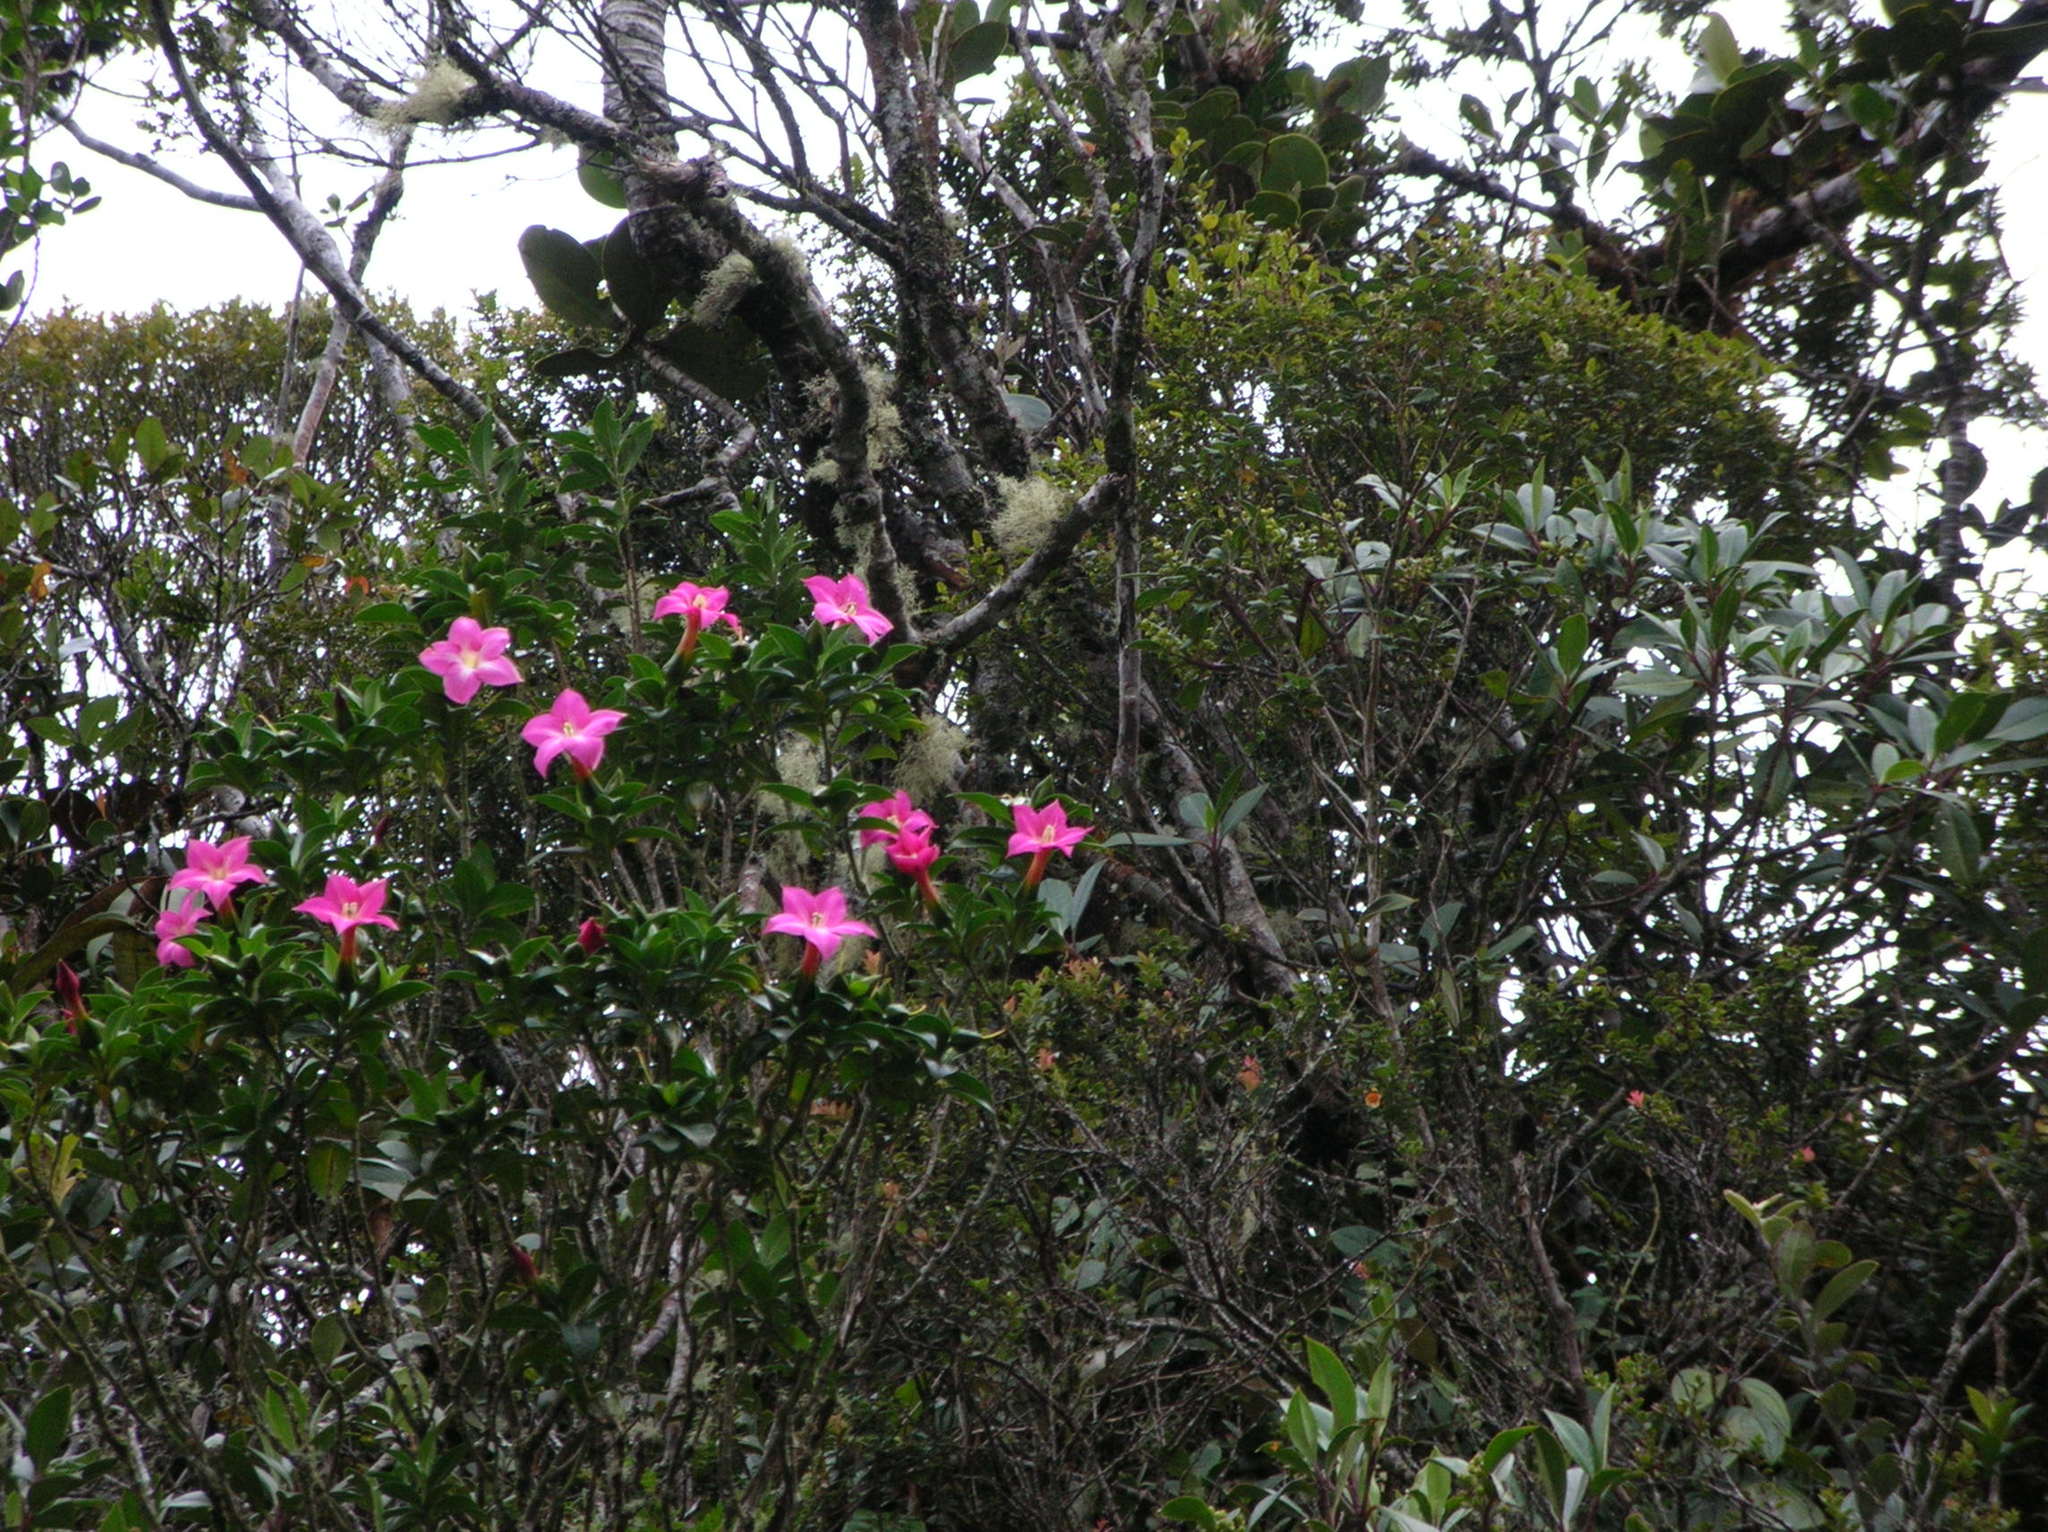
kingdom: Plantae
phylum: Tracheophyta
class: Magnoliopsida
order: Gentianales
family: Gentianaceae
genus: Symbolanthus
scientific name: Symbolanthus mathewsii
